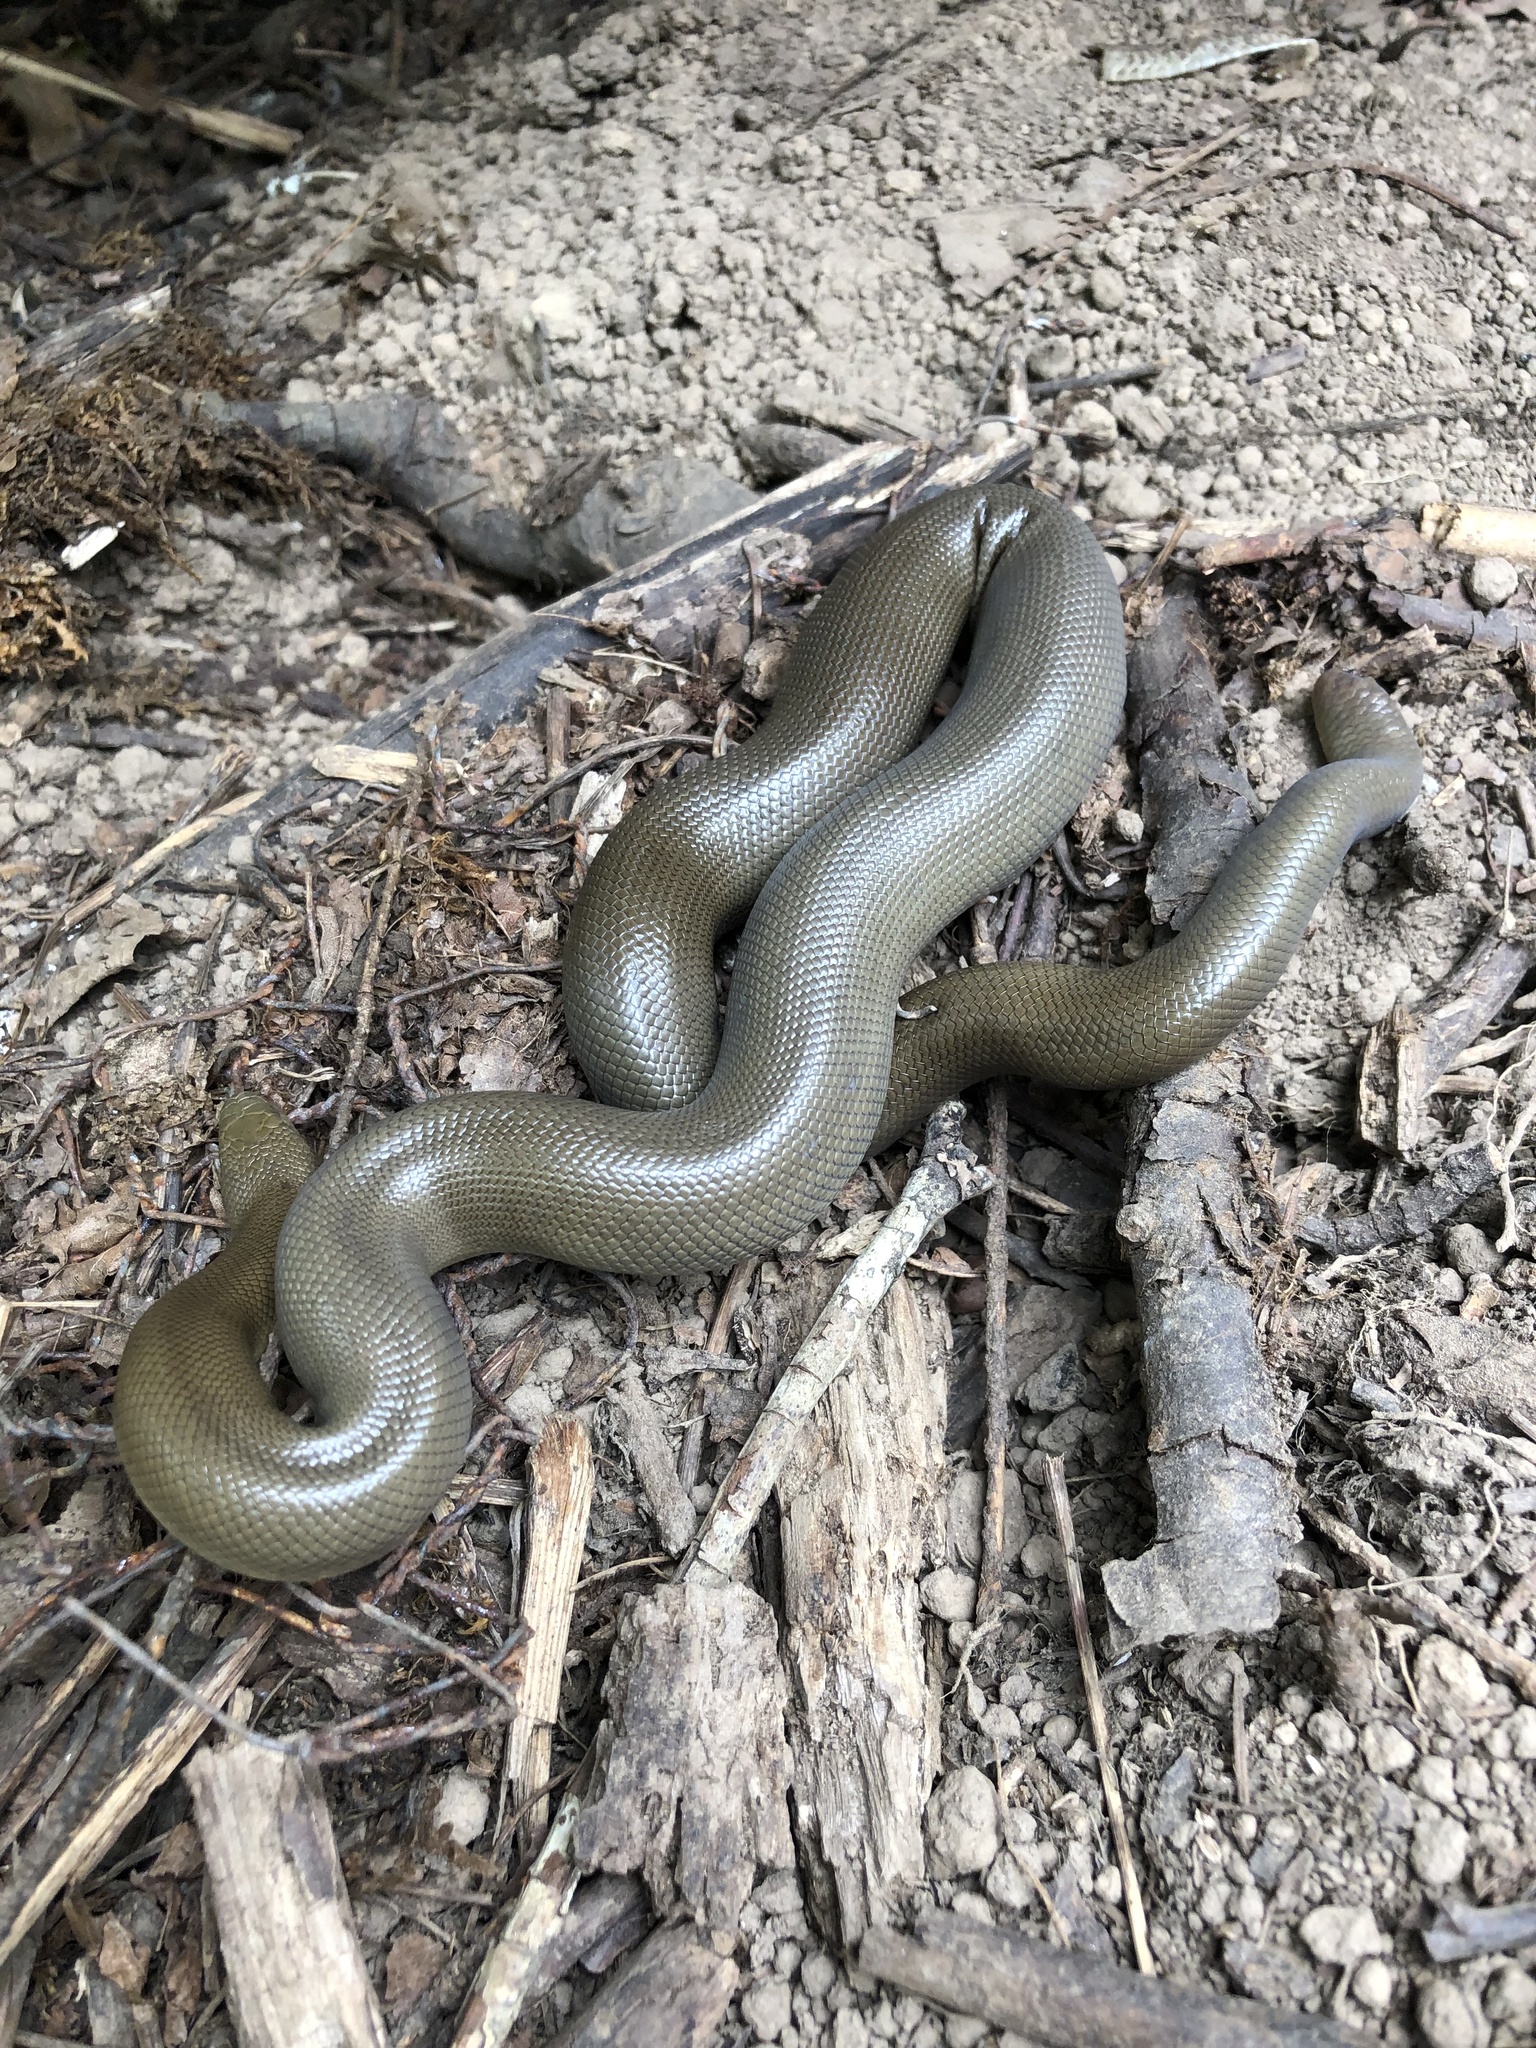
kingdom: Animalia
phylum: Chordata
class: Squamata
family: Boidae
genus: Charina
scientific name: Charina bottae
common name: Northern rubber boa
